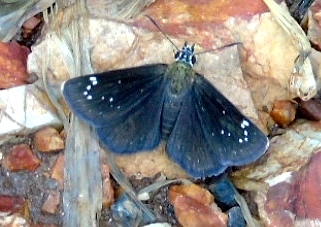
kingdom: Animalia
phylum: Arthropoda
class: Insecta
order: Lepidoptera
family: Hesperiidae
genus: Pholisora
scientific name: Pholisora catullus
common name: Common sootywing
